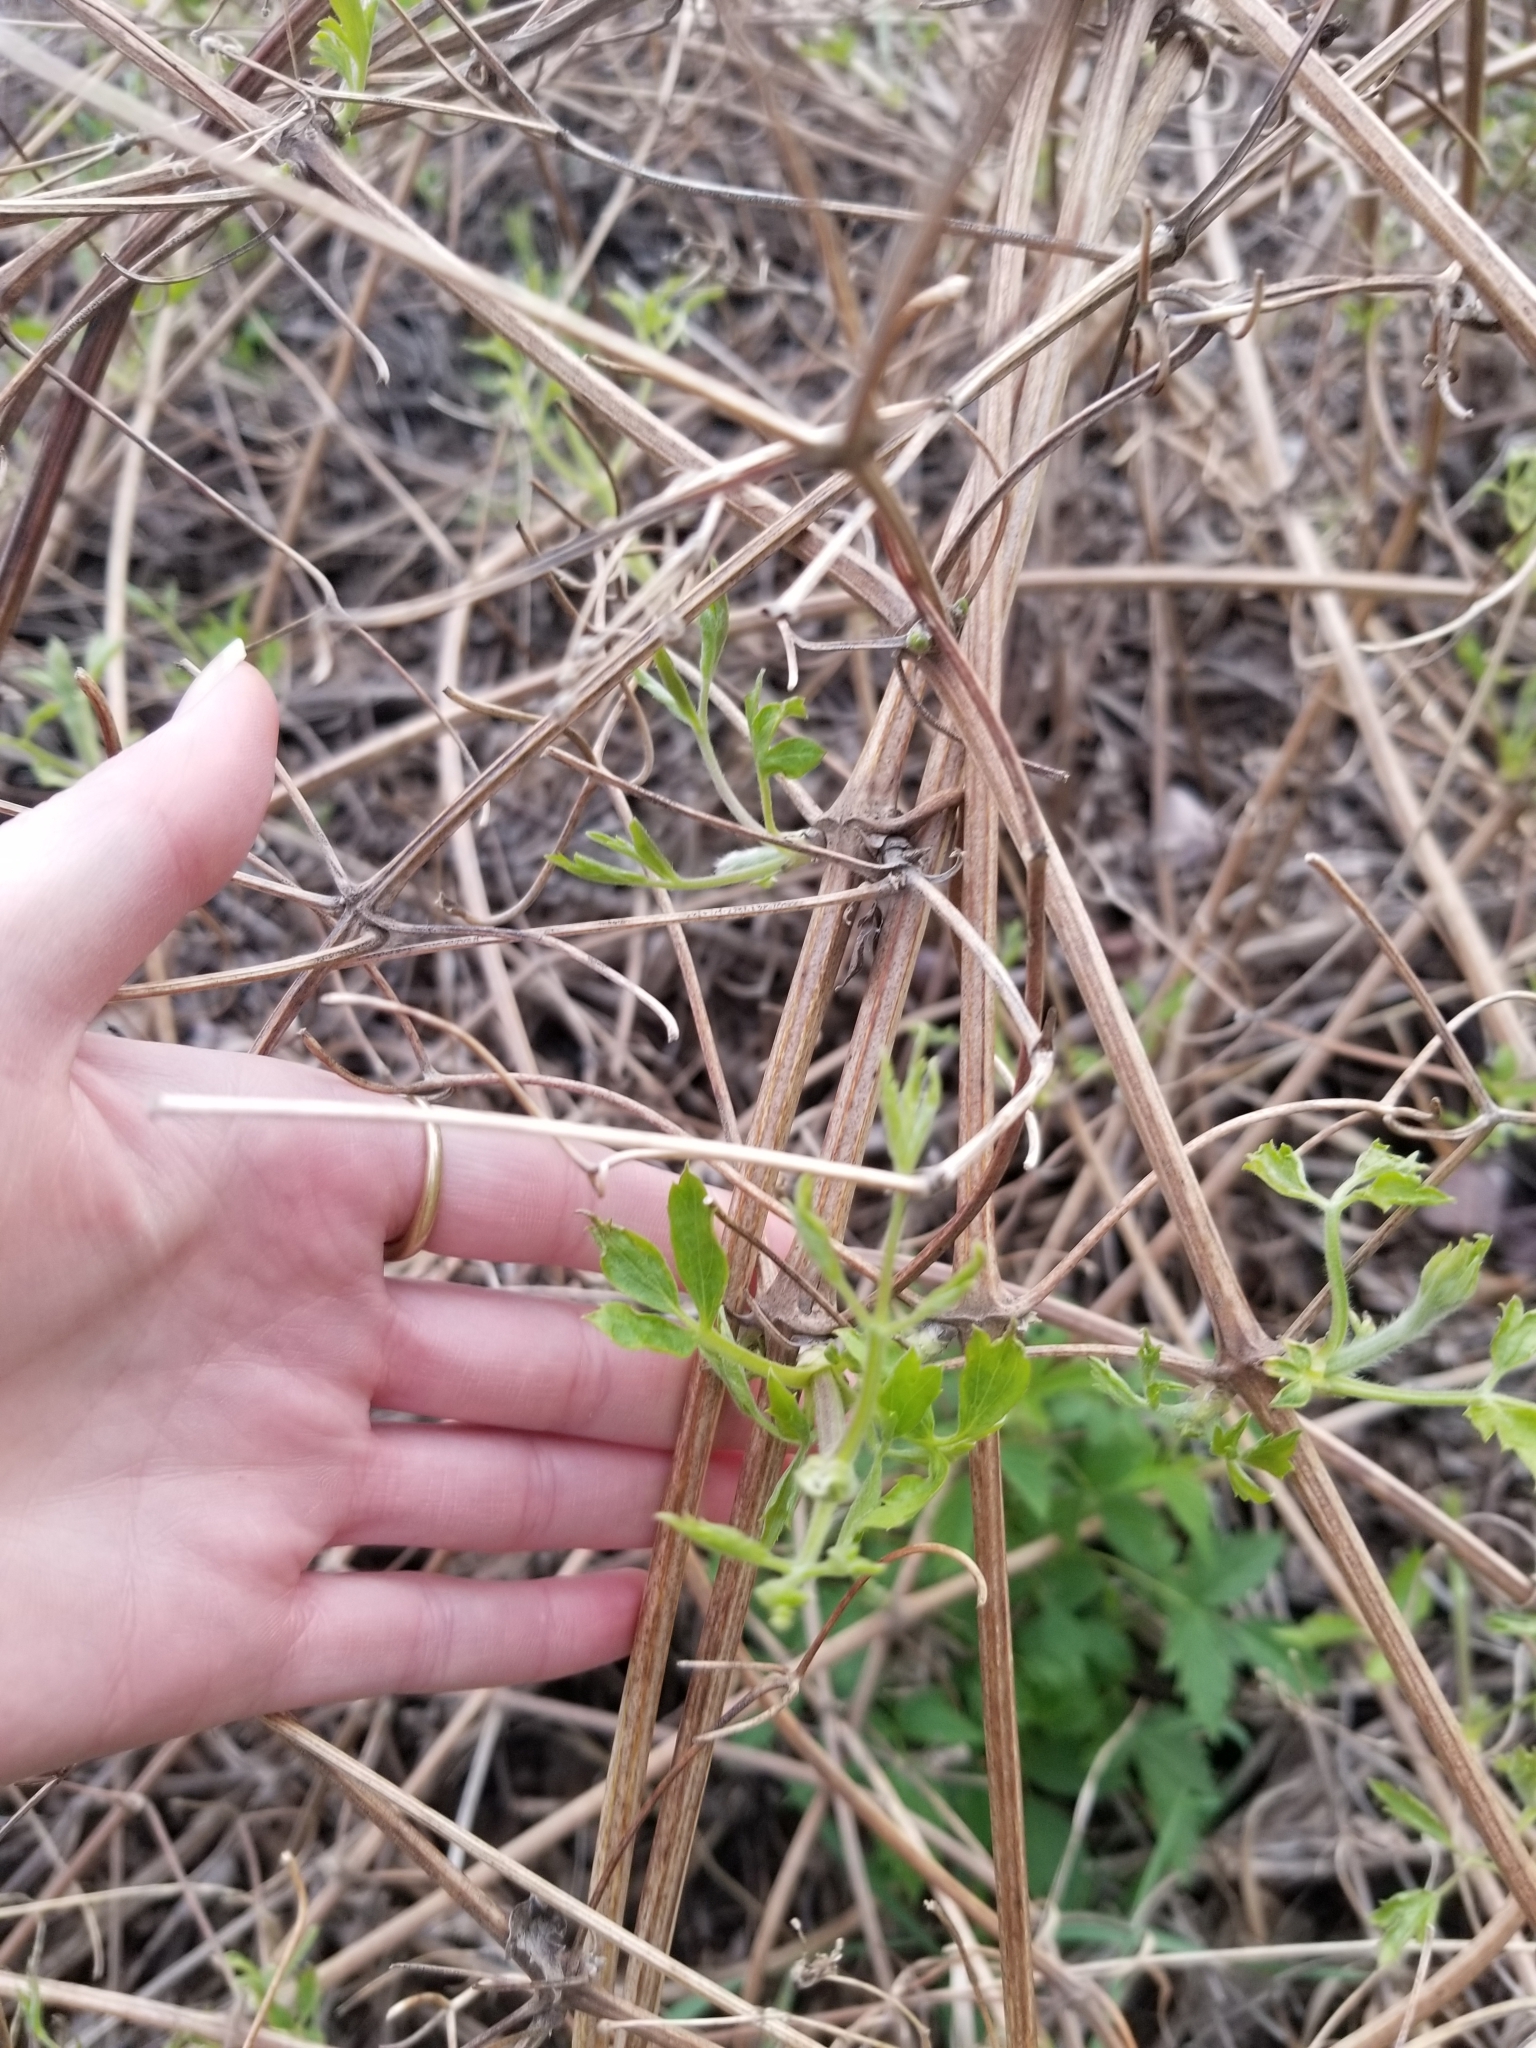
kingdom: Plantae
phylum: Tracheophyta
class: Magnoliopsida
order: Ranunculales
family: Ranunculaceae
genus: Clematis
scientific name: Clematis ligusticifolia
